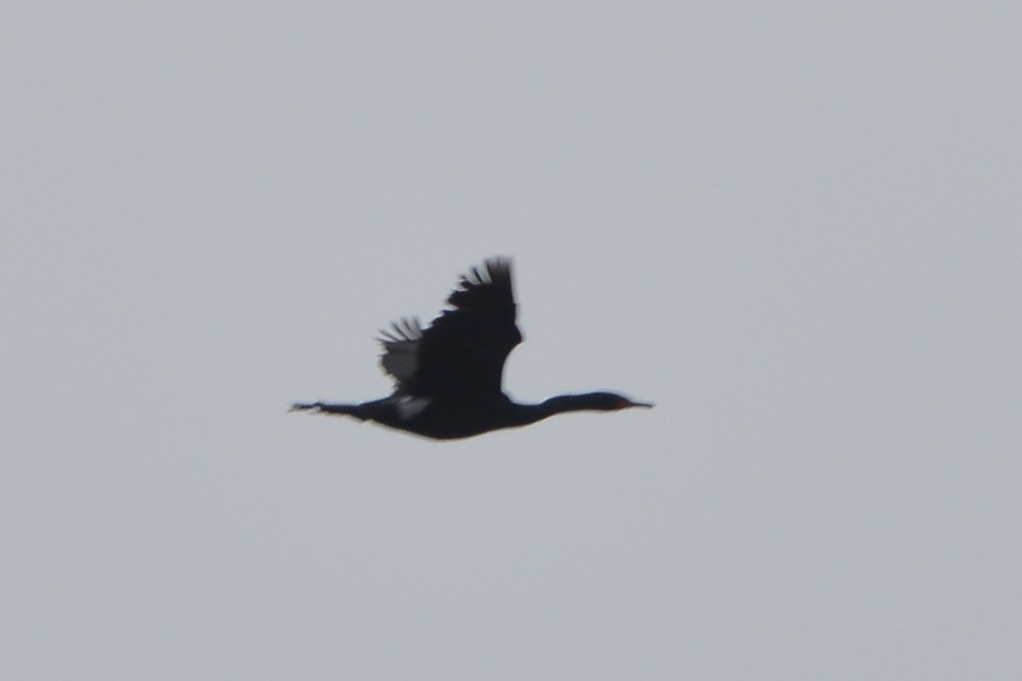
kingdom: Animalia
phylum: Chordata
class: Aves
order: Suliformes
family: Phalacrocoracidae
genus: Phalacrocorax
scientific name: Phalacrocorax pelagicus
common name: Pelagic cormorant
